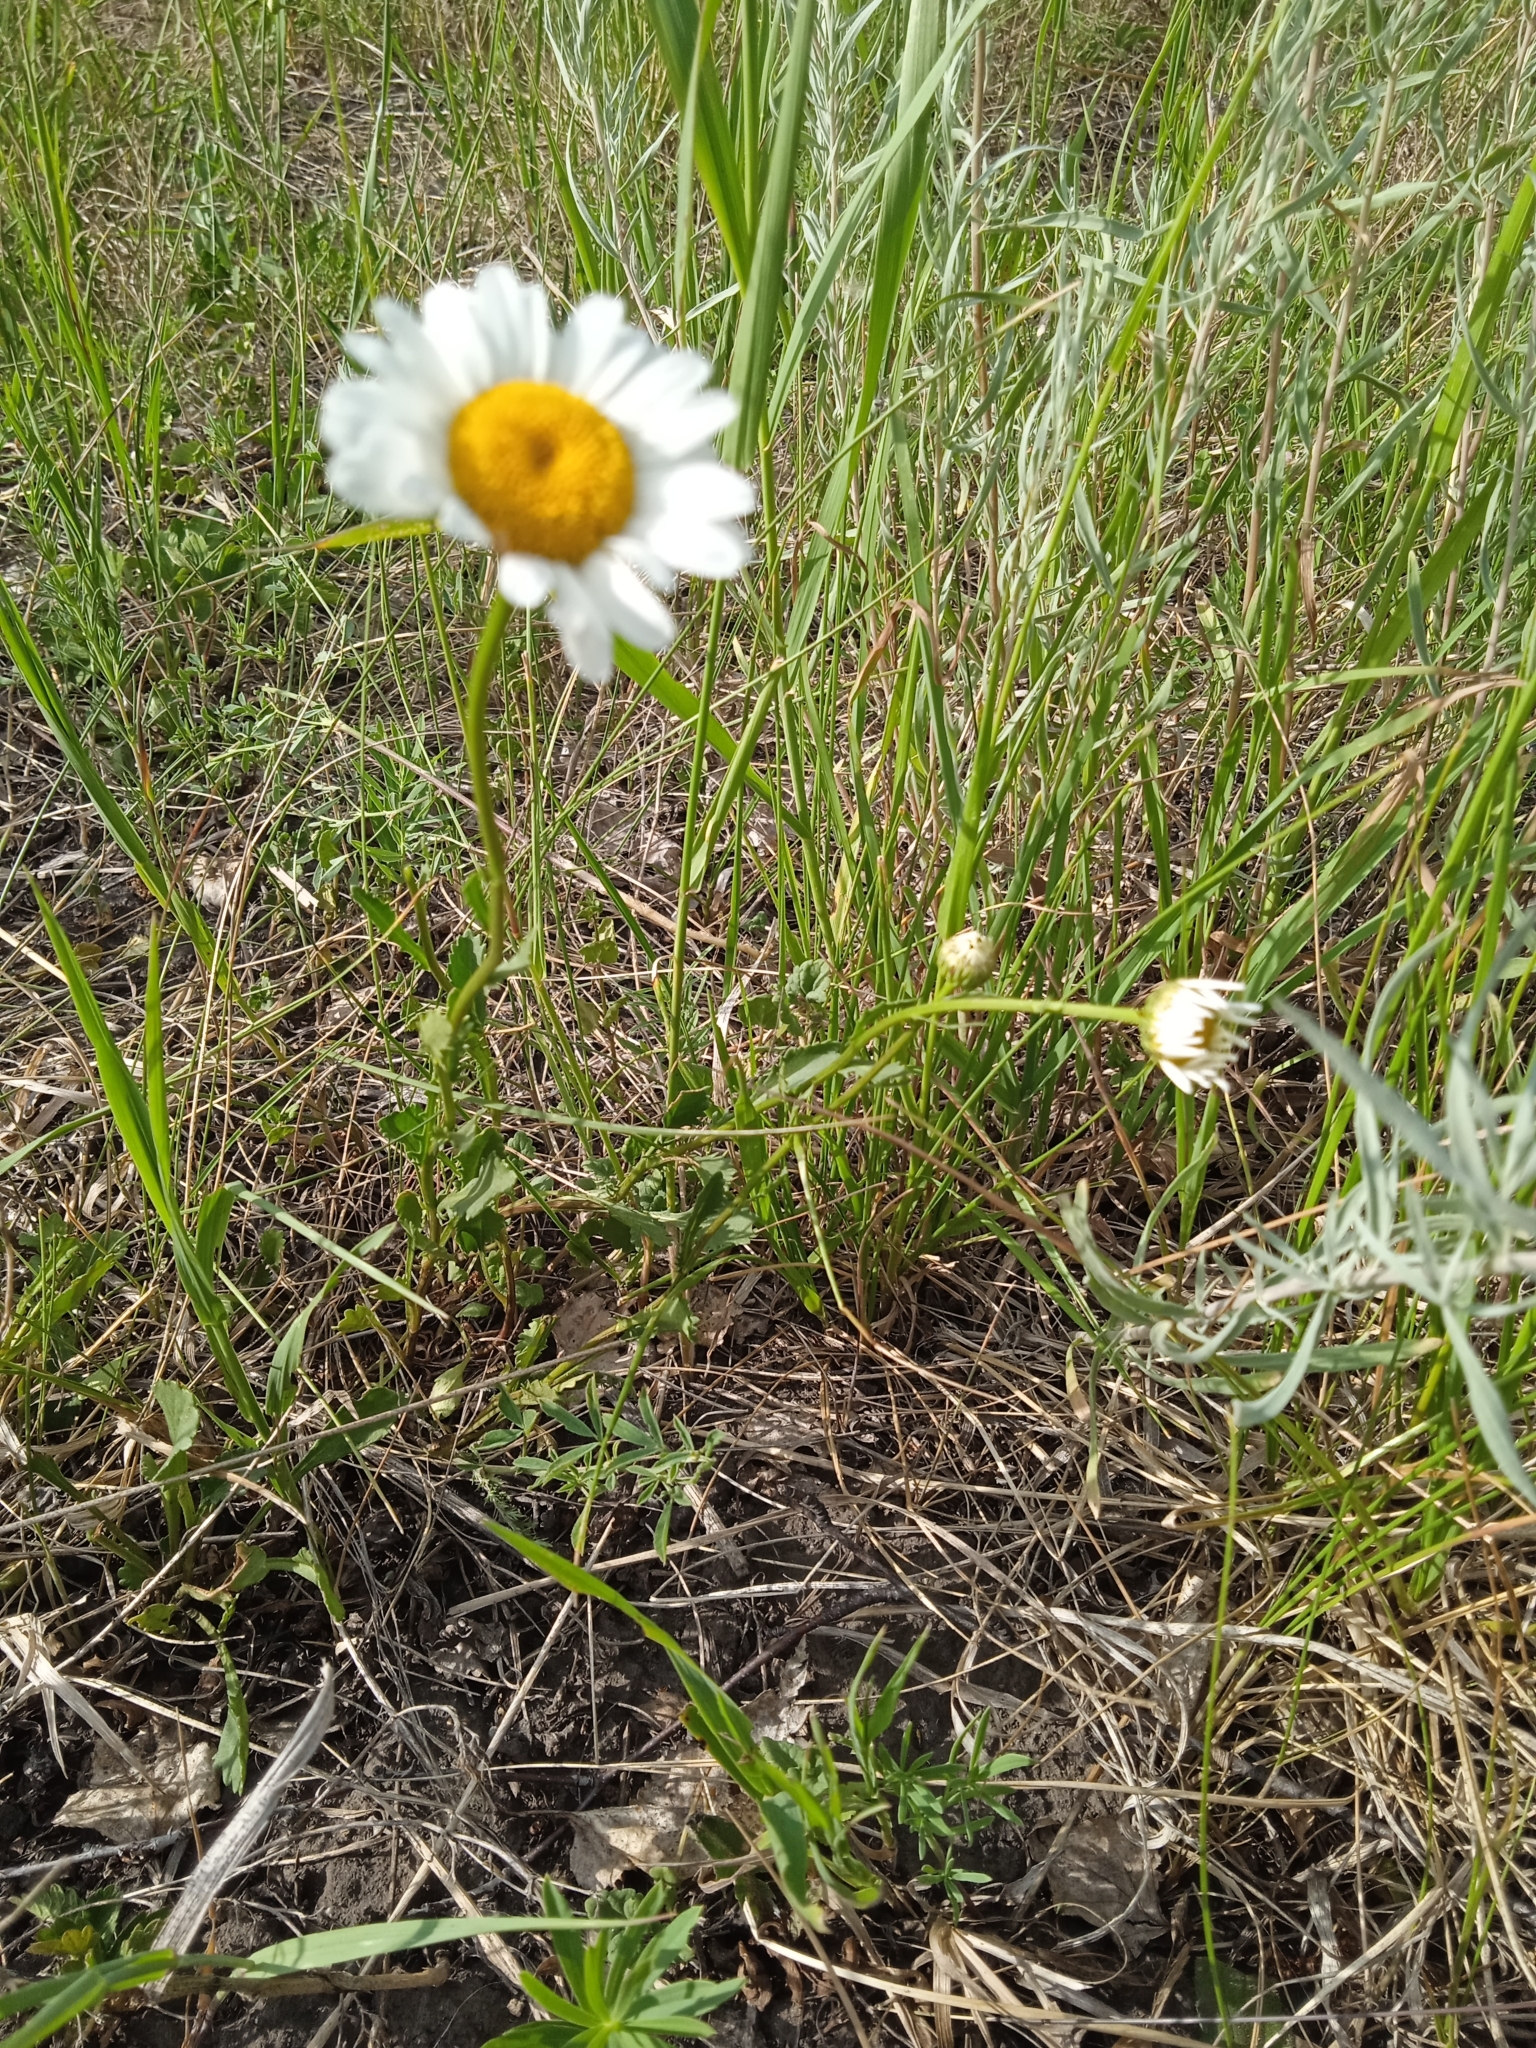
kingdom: Plantae
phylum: Tracheophyta
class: Magnoliopsida
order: Asterales
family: Asteraceae
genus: Leucanthemum
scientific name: Leucanthemum vulgare
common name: Oxeye daisy
